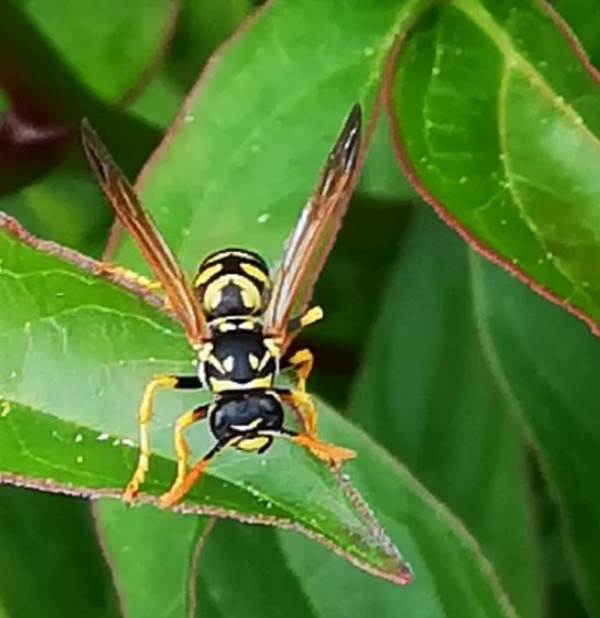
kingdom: Animalia
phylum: Arthropoda
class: Insecta
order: Hymenoptera
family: Eumenidae
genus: Polistes
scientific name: Polistes gallicus
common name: Paper wasp
